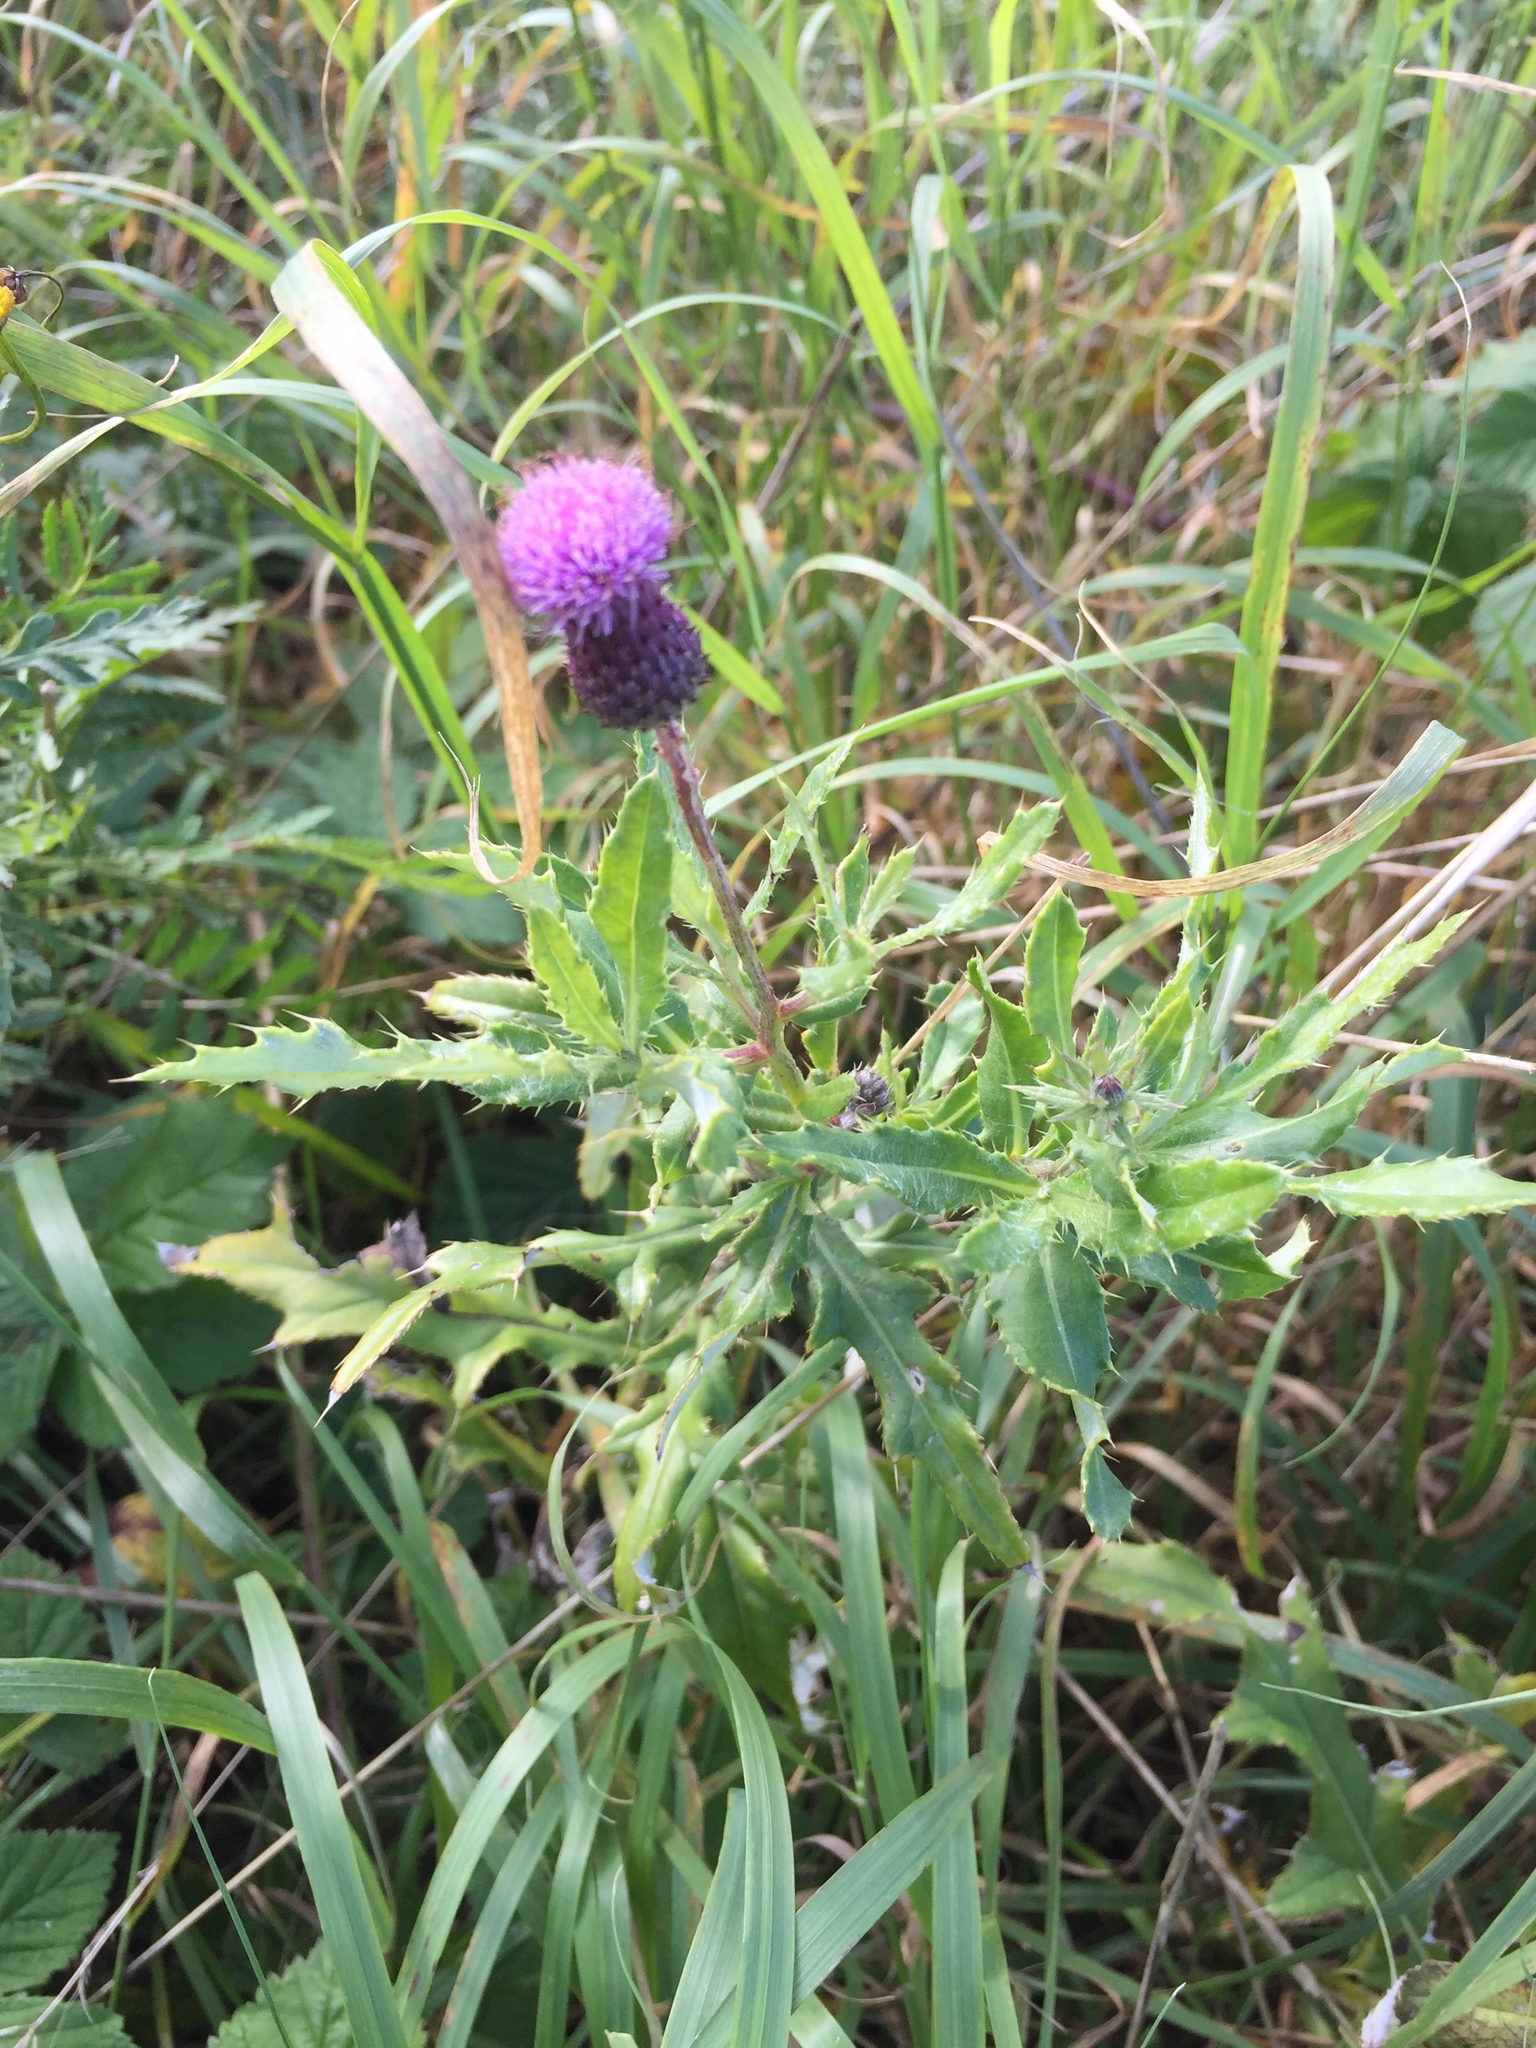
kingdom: Plantae
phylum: Tracheophyta
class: Magnoliopsida
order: Asterales
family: Asteraceae
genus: Cirsium
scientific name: Cirsium arvense
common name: Creeping thistle
